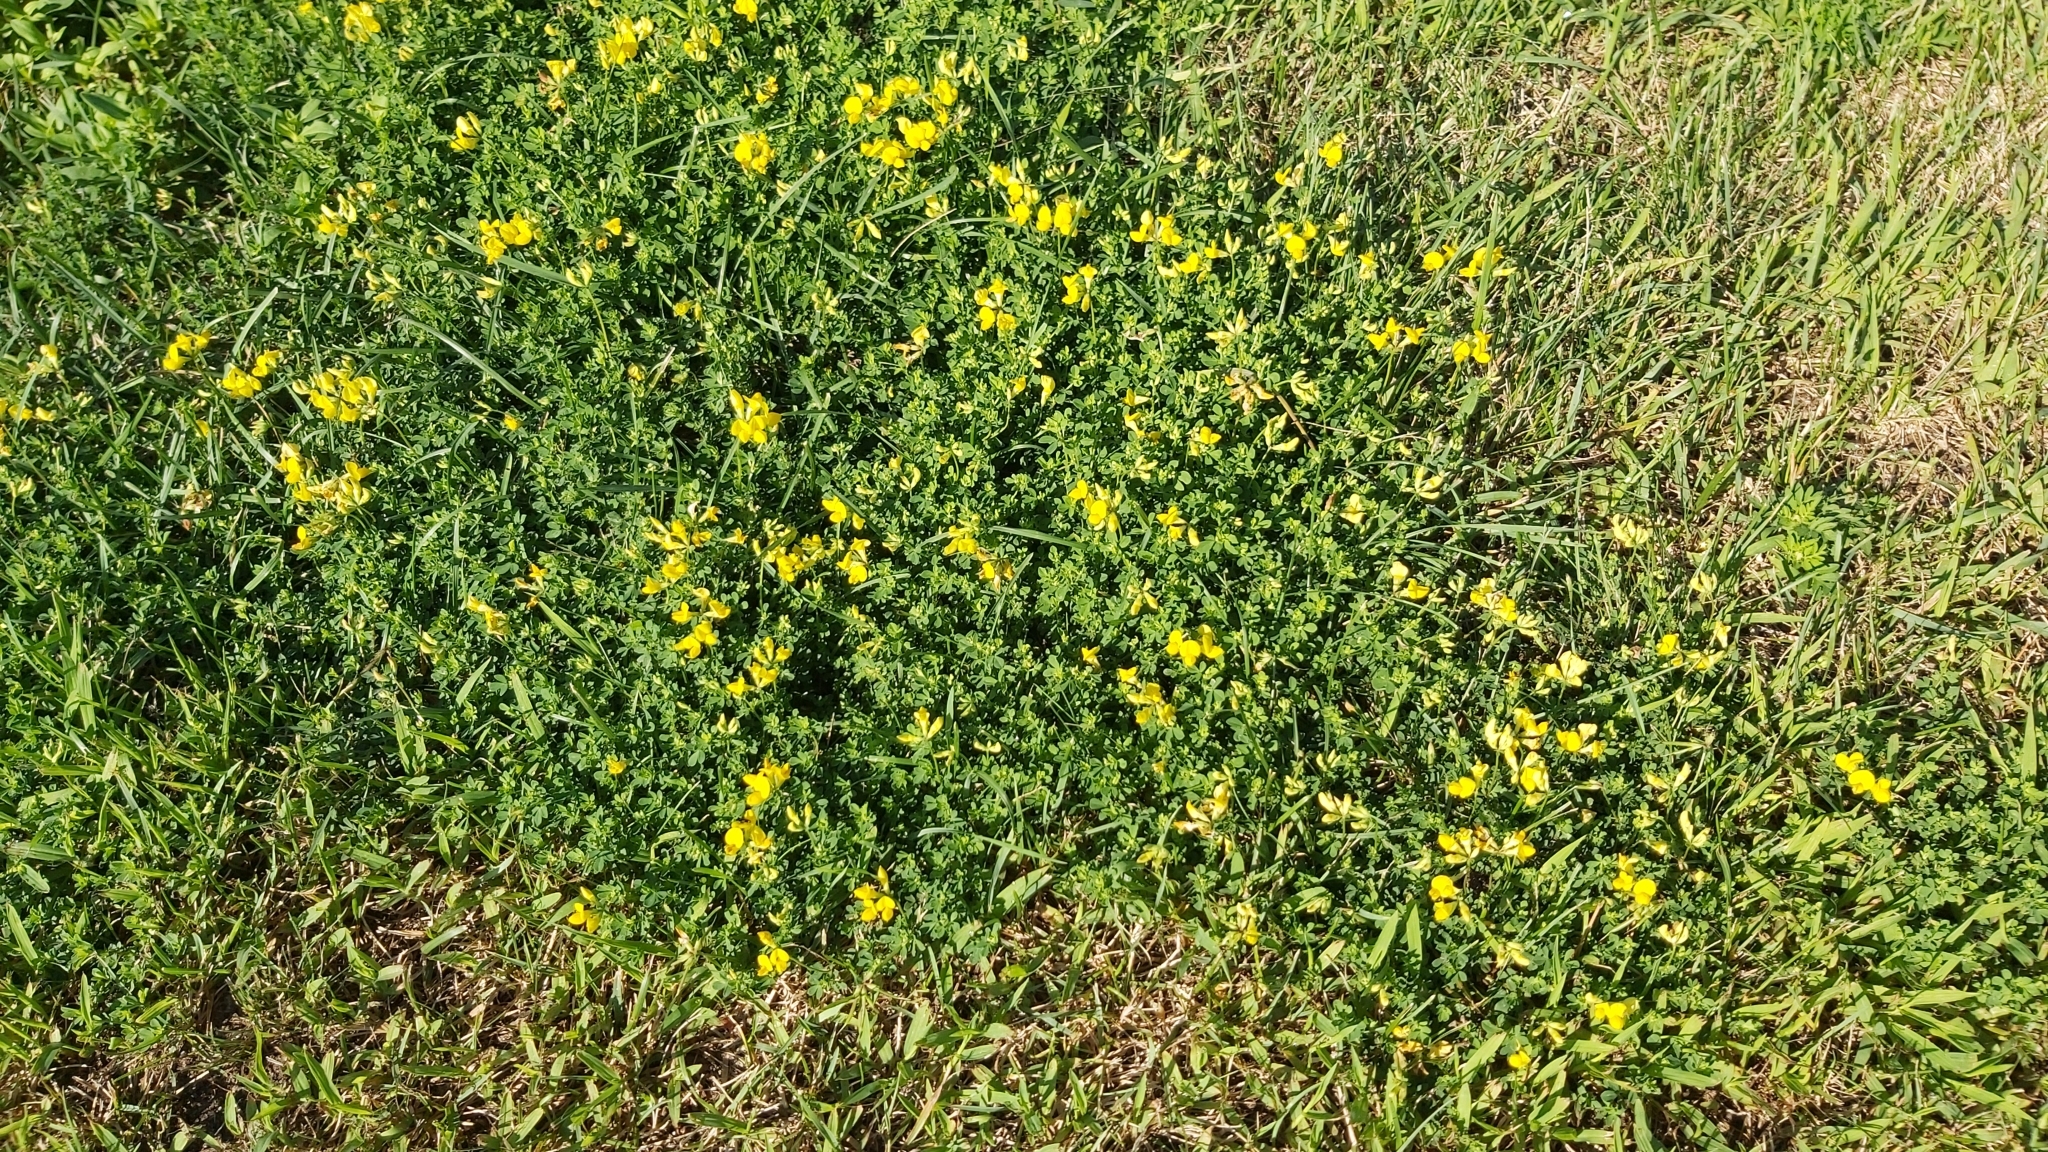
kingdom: Plantae
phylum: Tracheophyta
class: Magnoliopsida
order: Fabales
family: Fabaceae
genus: Lotus
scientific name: Lotus corniculatus
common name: Common bird's-foot-trefoil
